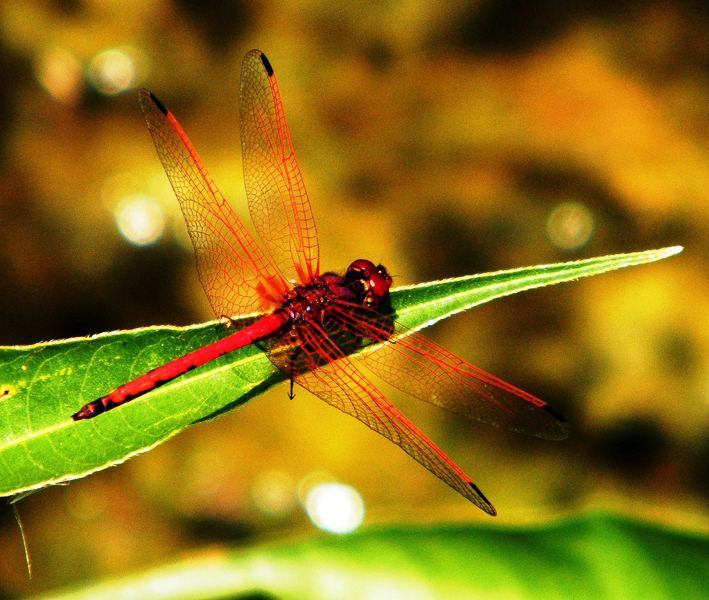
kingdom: Animalia
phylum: Arthropoda
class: Insecta
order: Odonata
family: Libellulidae
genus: Trithemis
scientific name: Trithemis arteriosa
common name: Red-veined dropwing
